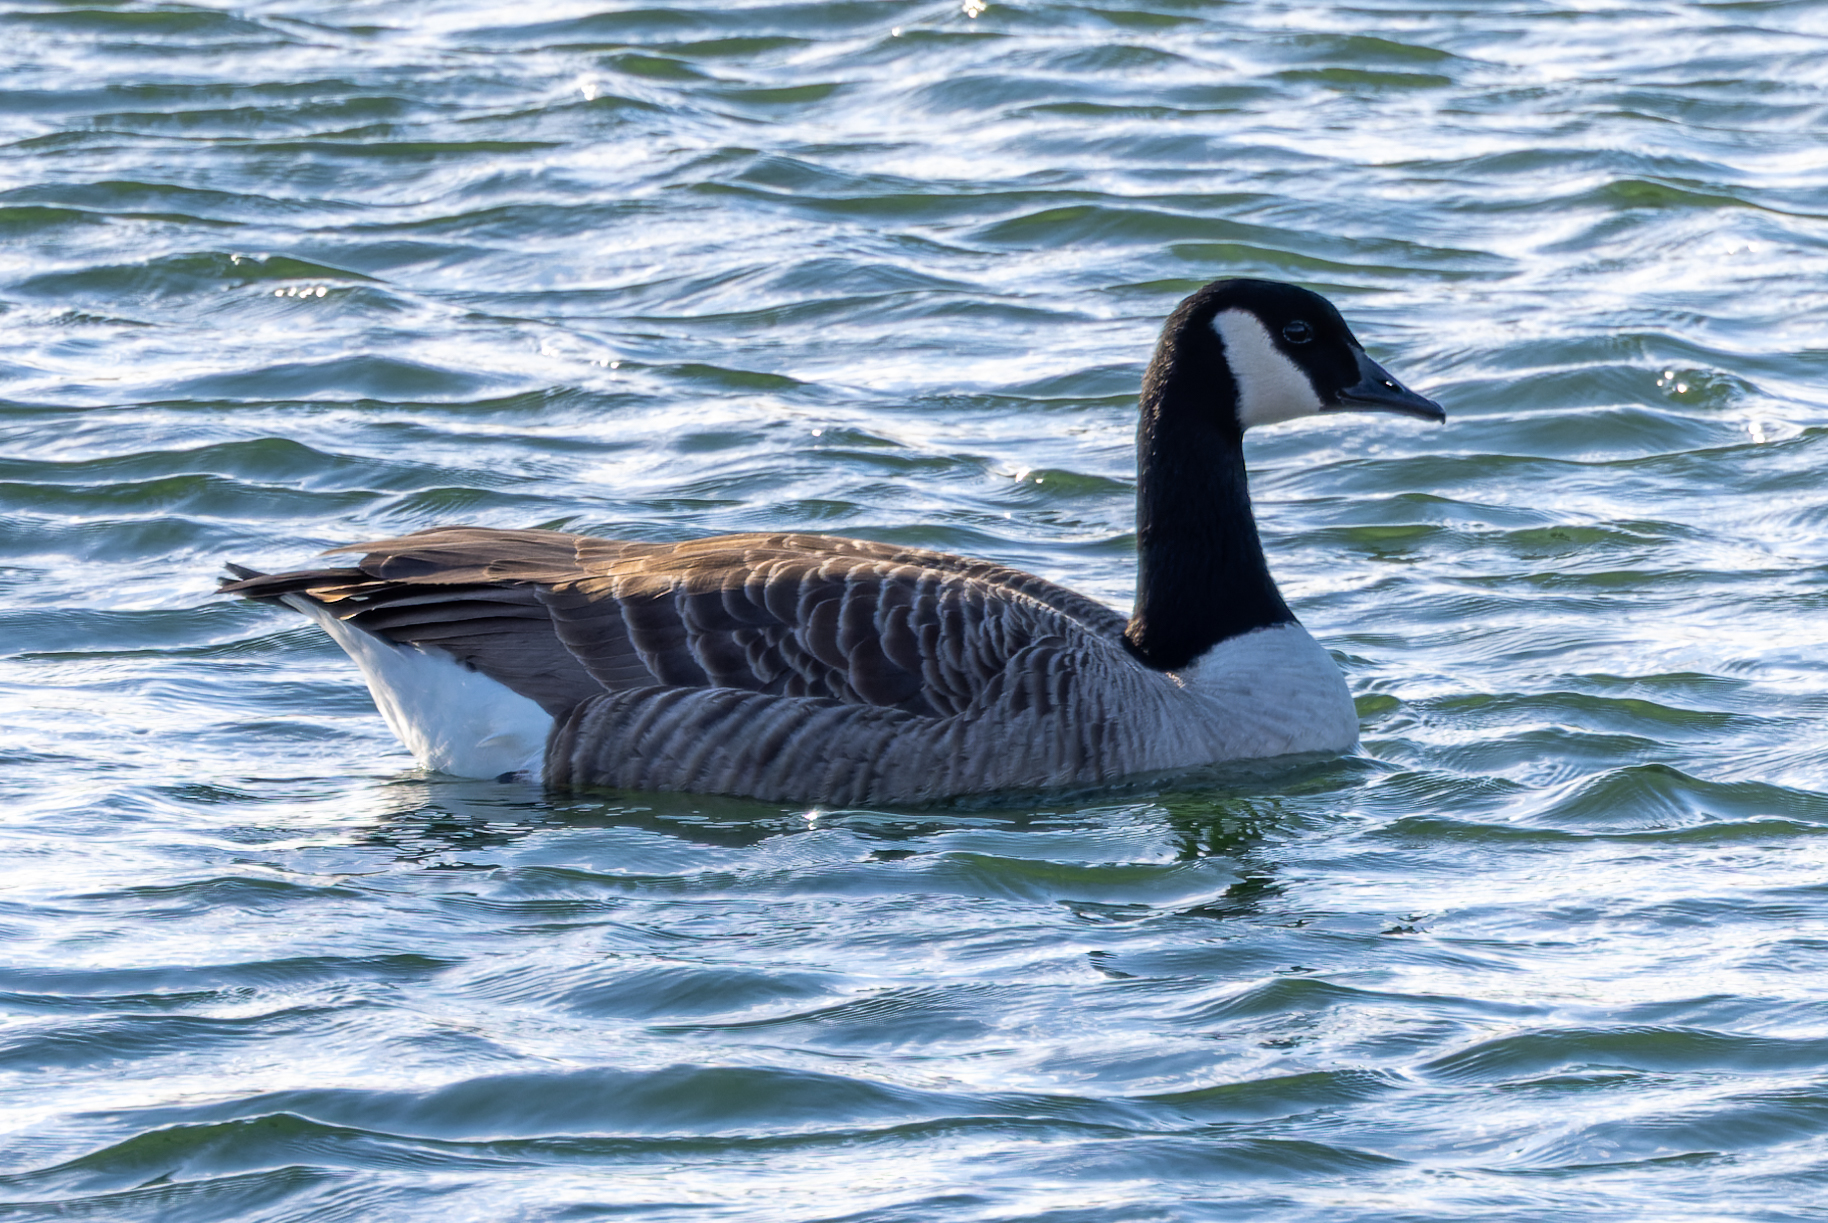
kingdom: Animalia
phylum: Chordata
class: Aves
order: Anseriformes
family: Anatidae
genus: Branta
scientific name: Branta canadensis
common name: Canada goose
